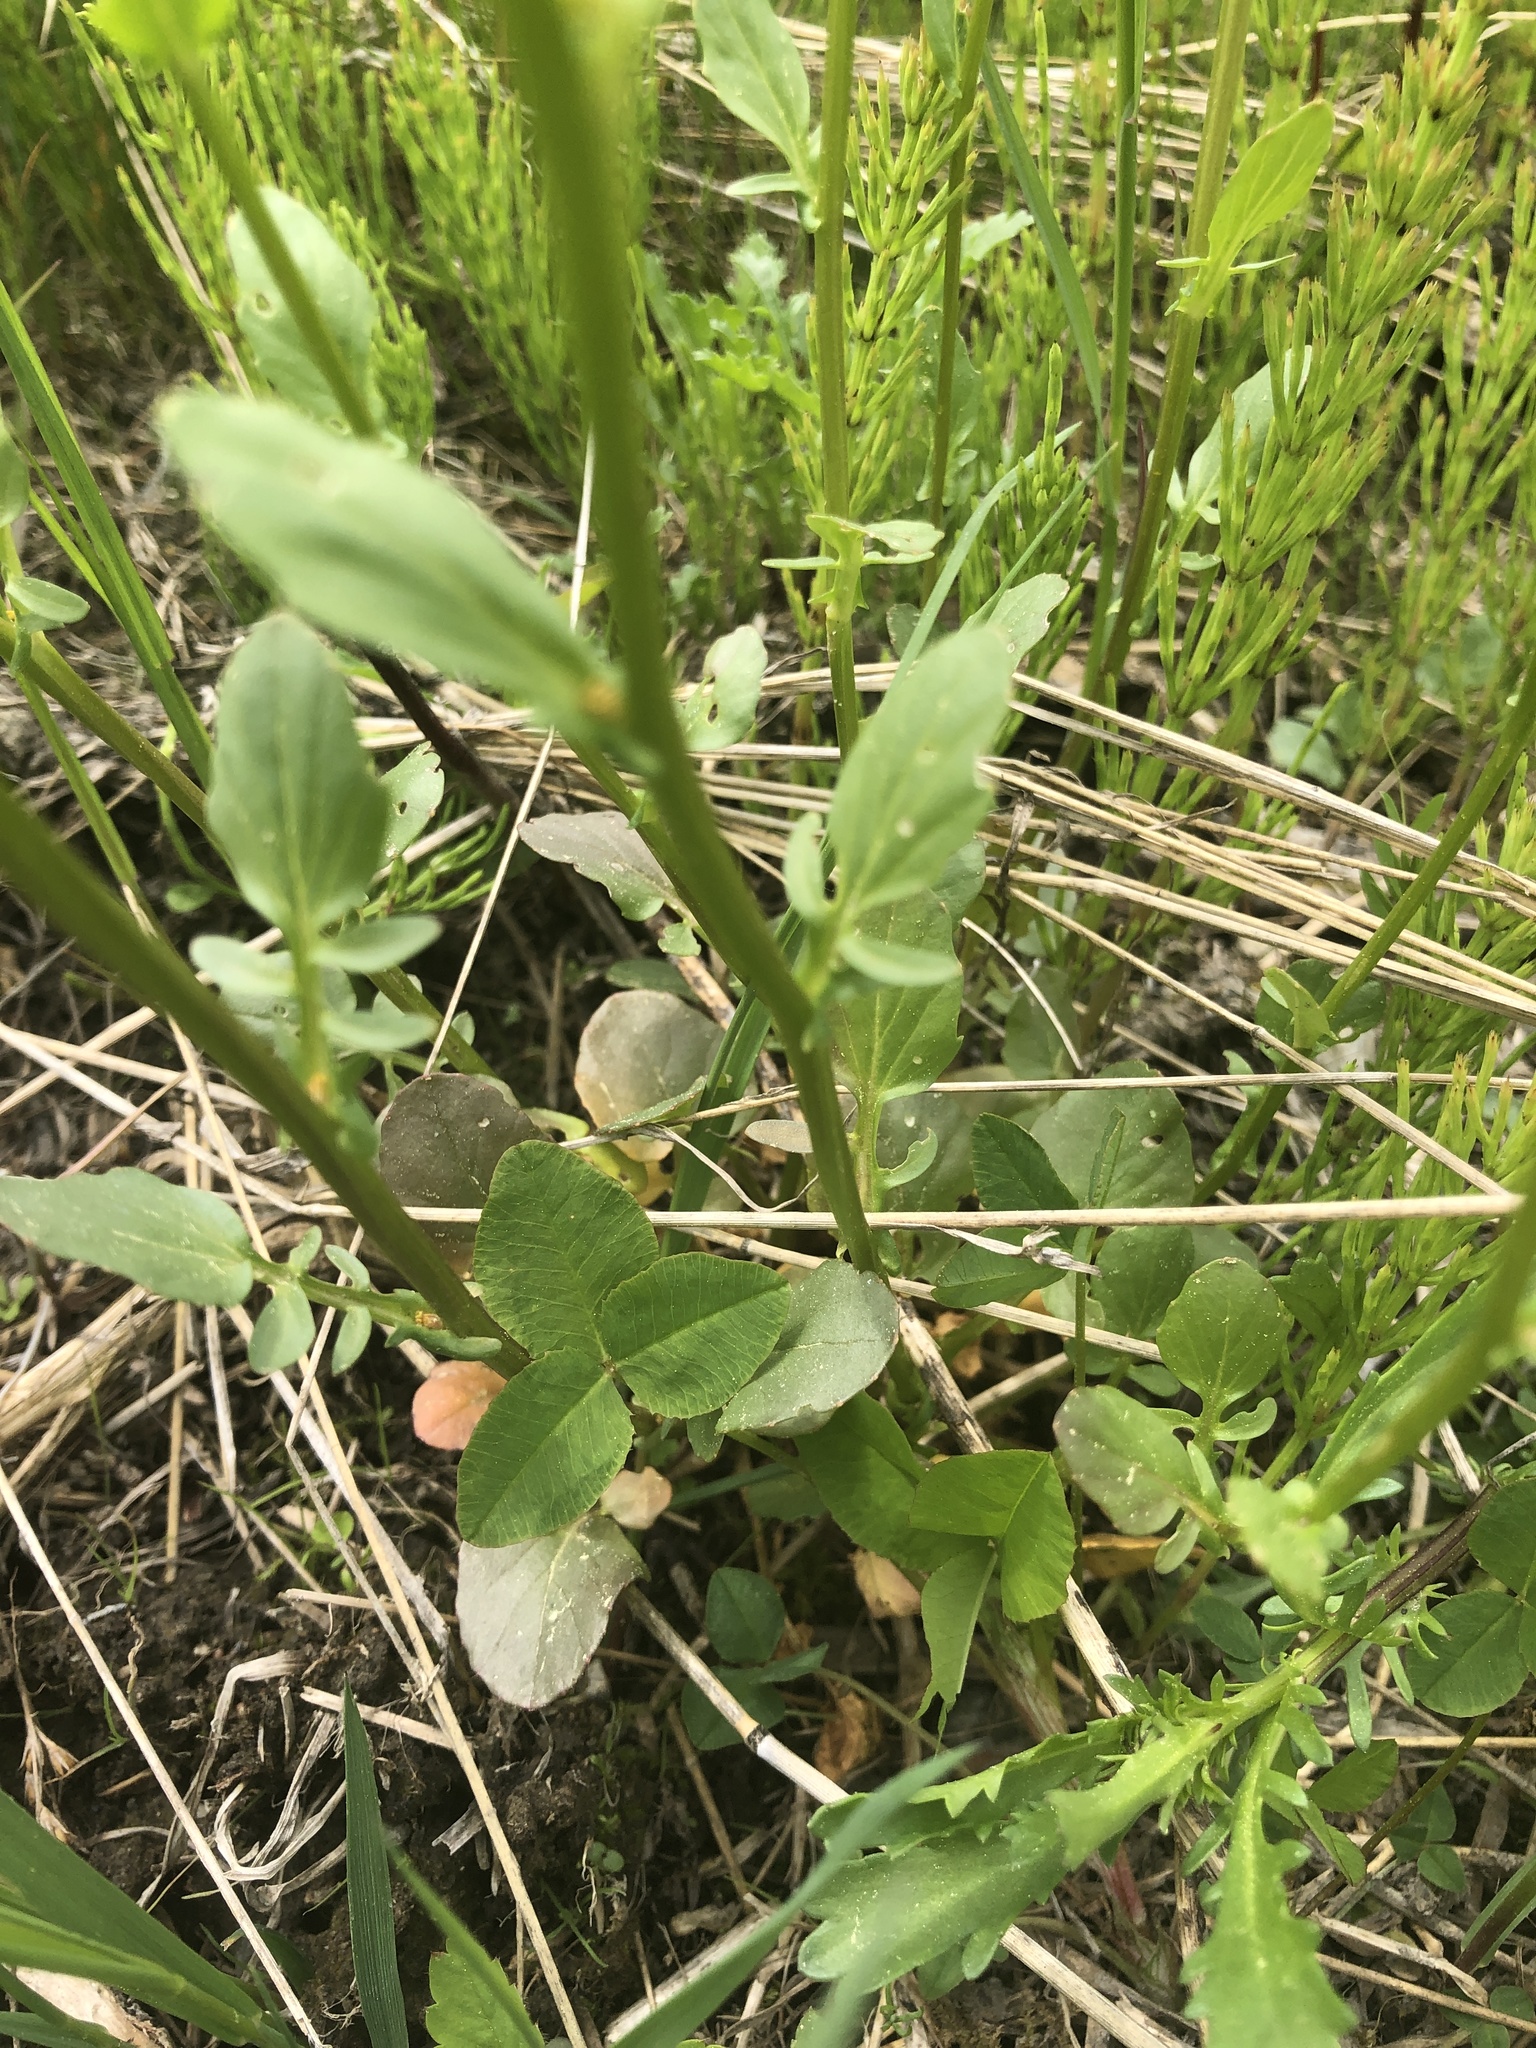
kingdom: Plantae
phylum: Tracheophyta
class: Magnoliopsida
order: Brassicales
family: Brassicaceae
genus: Barbarea
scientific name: Barbarea vulgaris
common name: Cressy-greens
